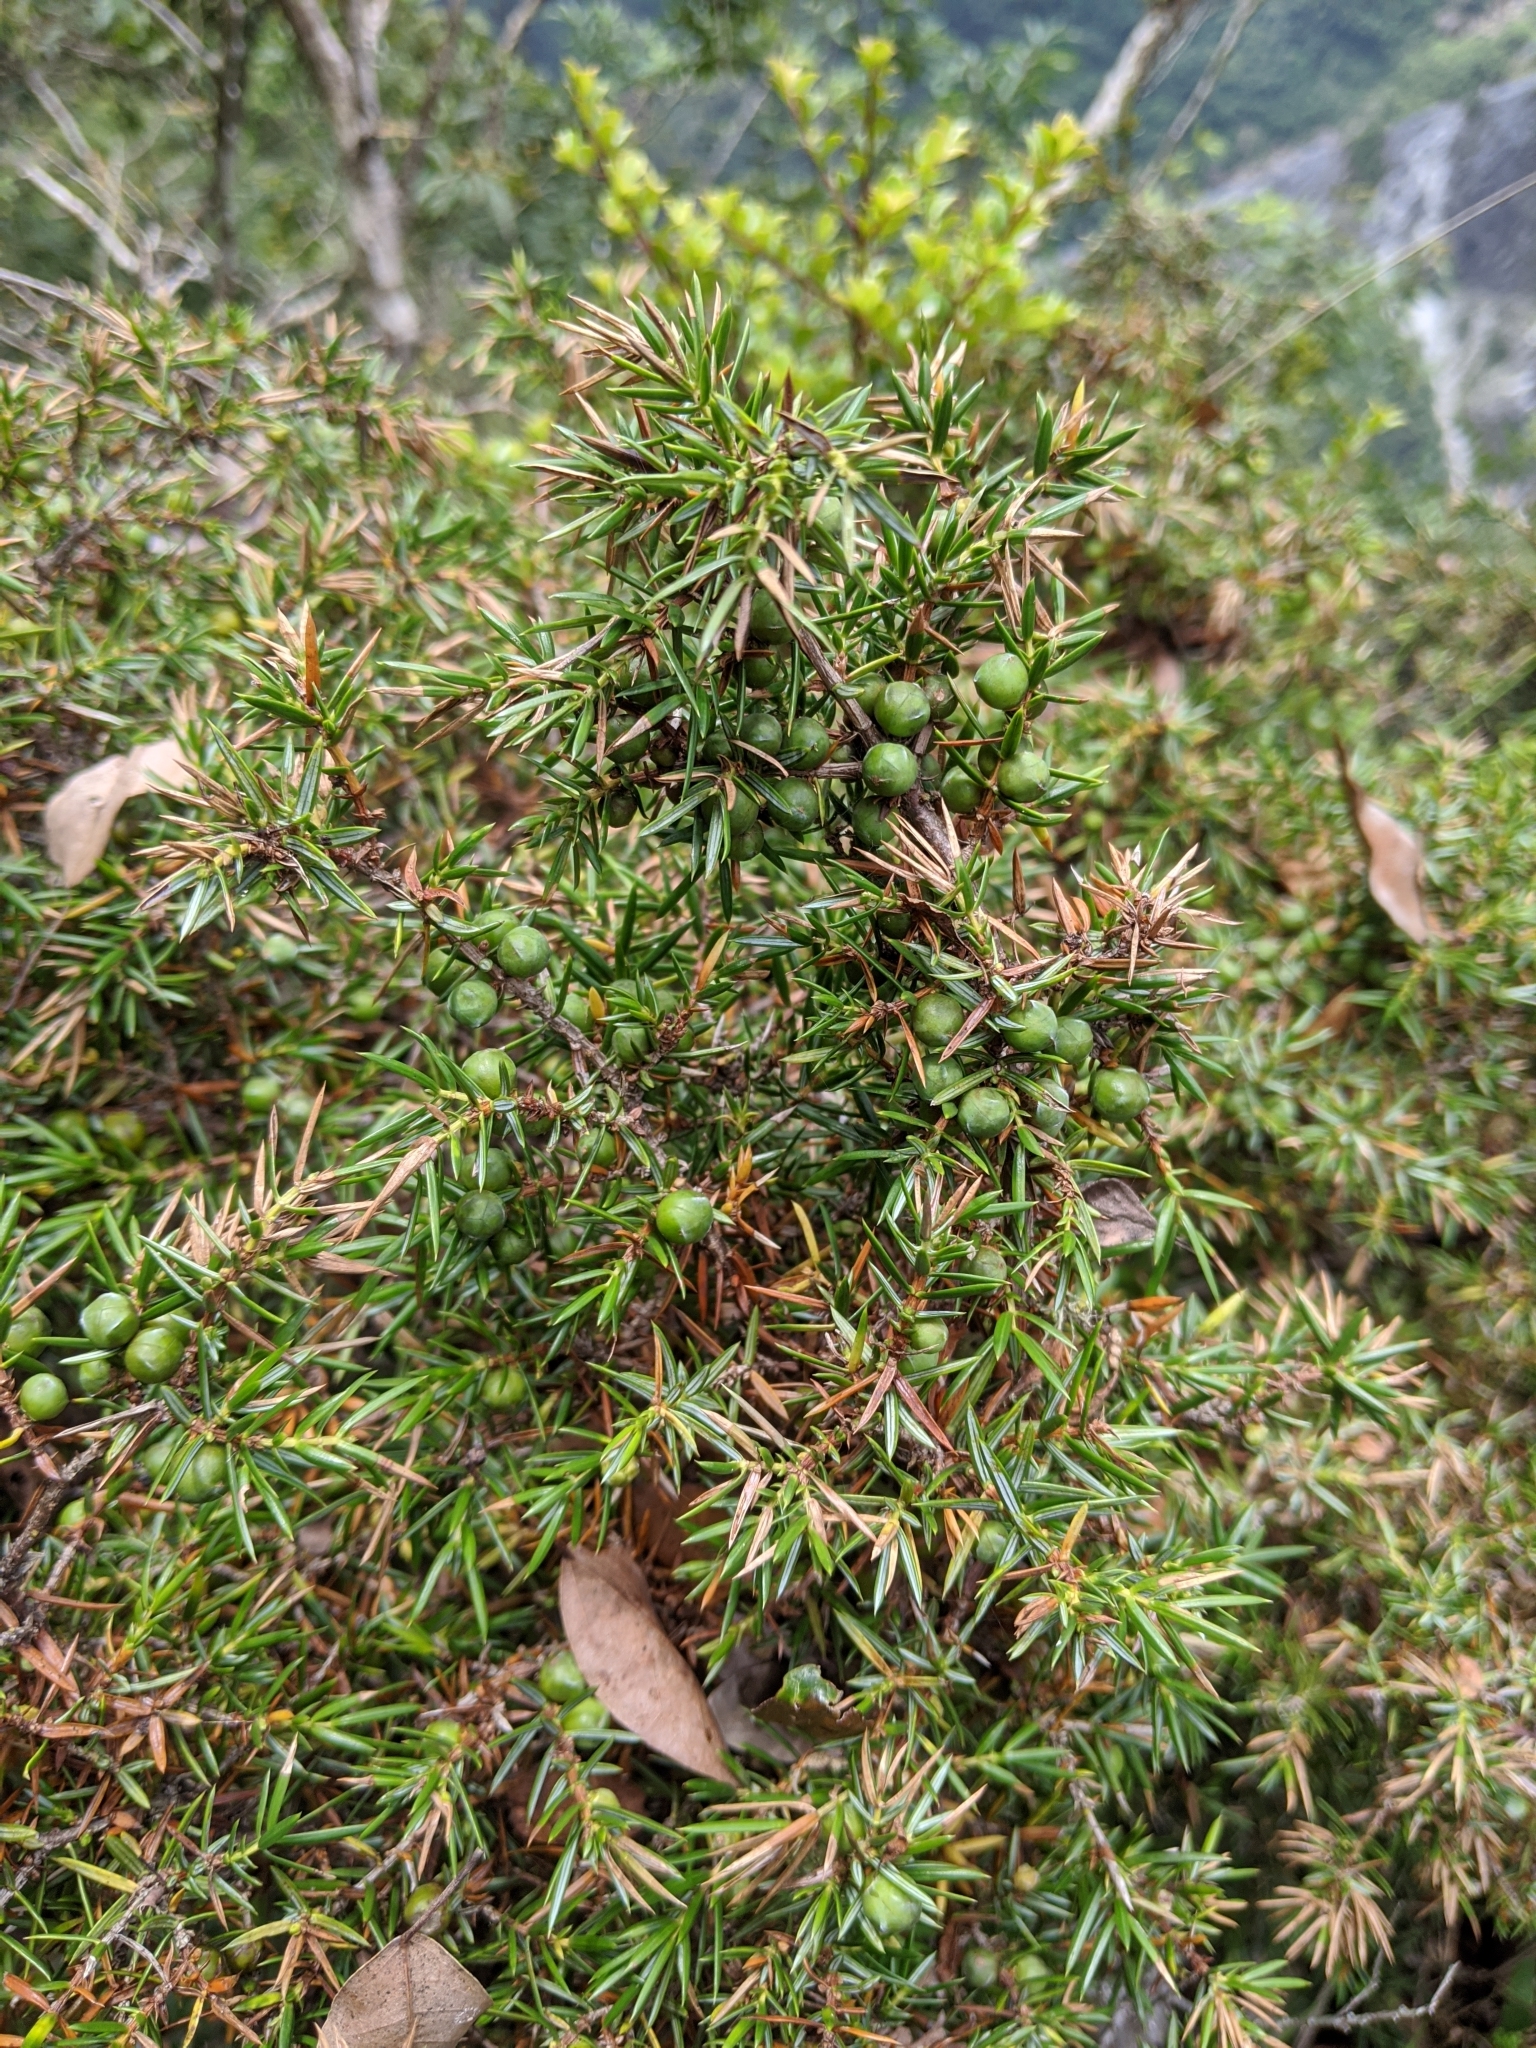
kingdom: Plantae
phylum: Tracheophyta
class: Pinopsida
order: Pinales
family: Cupressaceae
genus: Juniperus
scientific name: Juniperus formosana
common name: Formosan juniper
